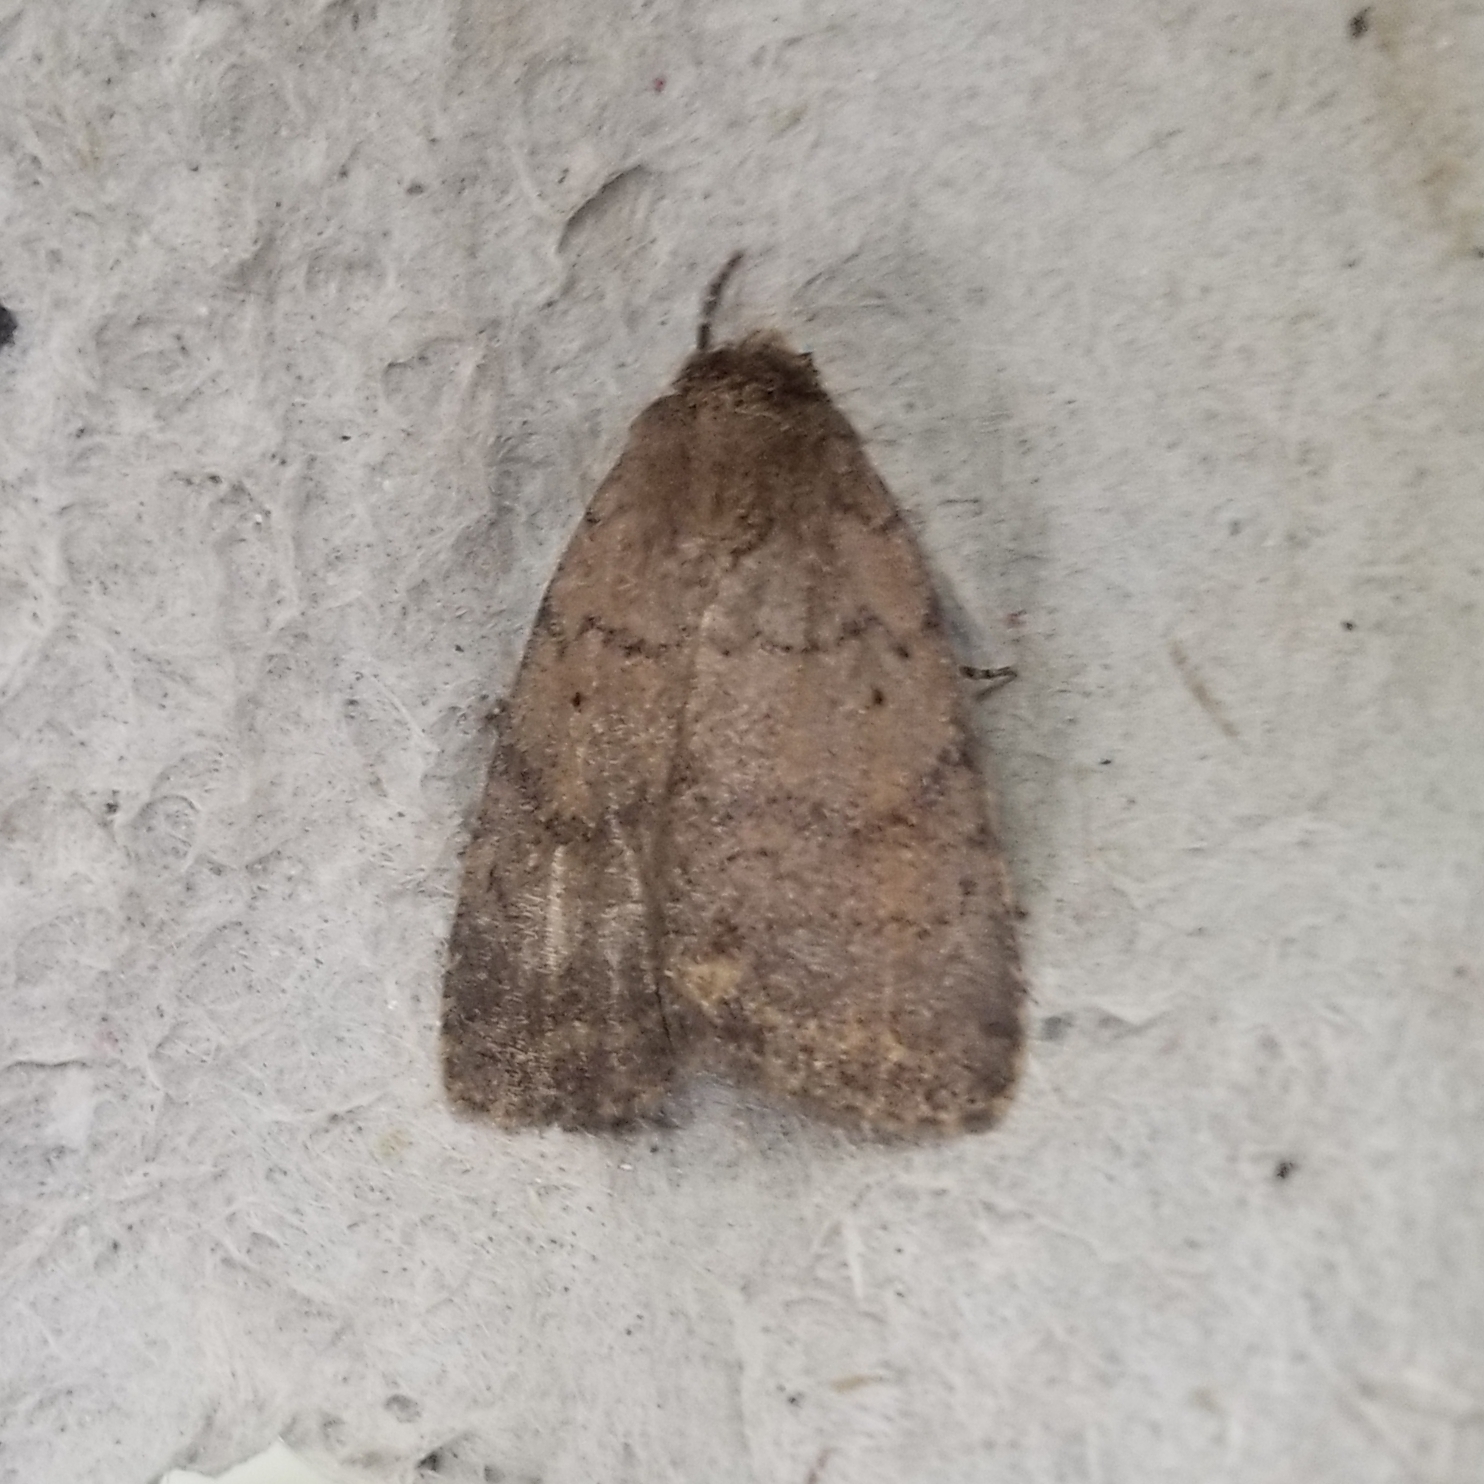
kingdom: Animalia
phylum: Arthropoda
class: Insecta
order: Lepidoptera
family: Noctuidae
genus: Athetis
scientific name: Athetis tarda
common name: Slowpoke moth
